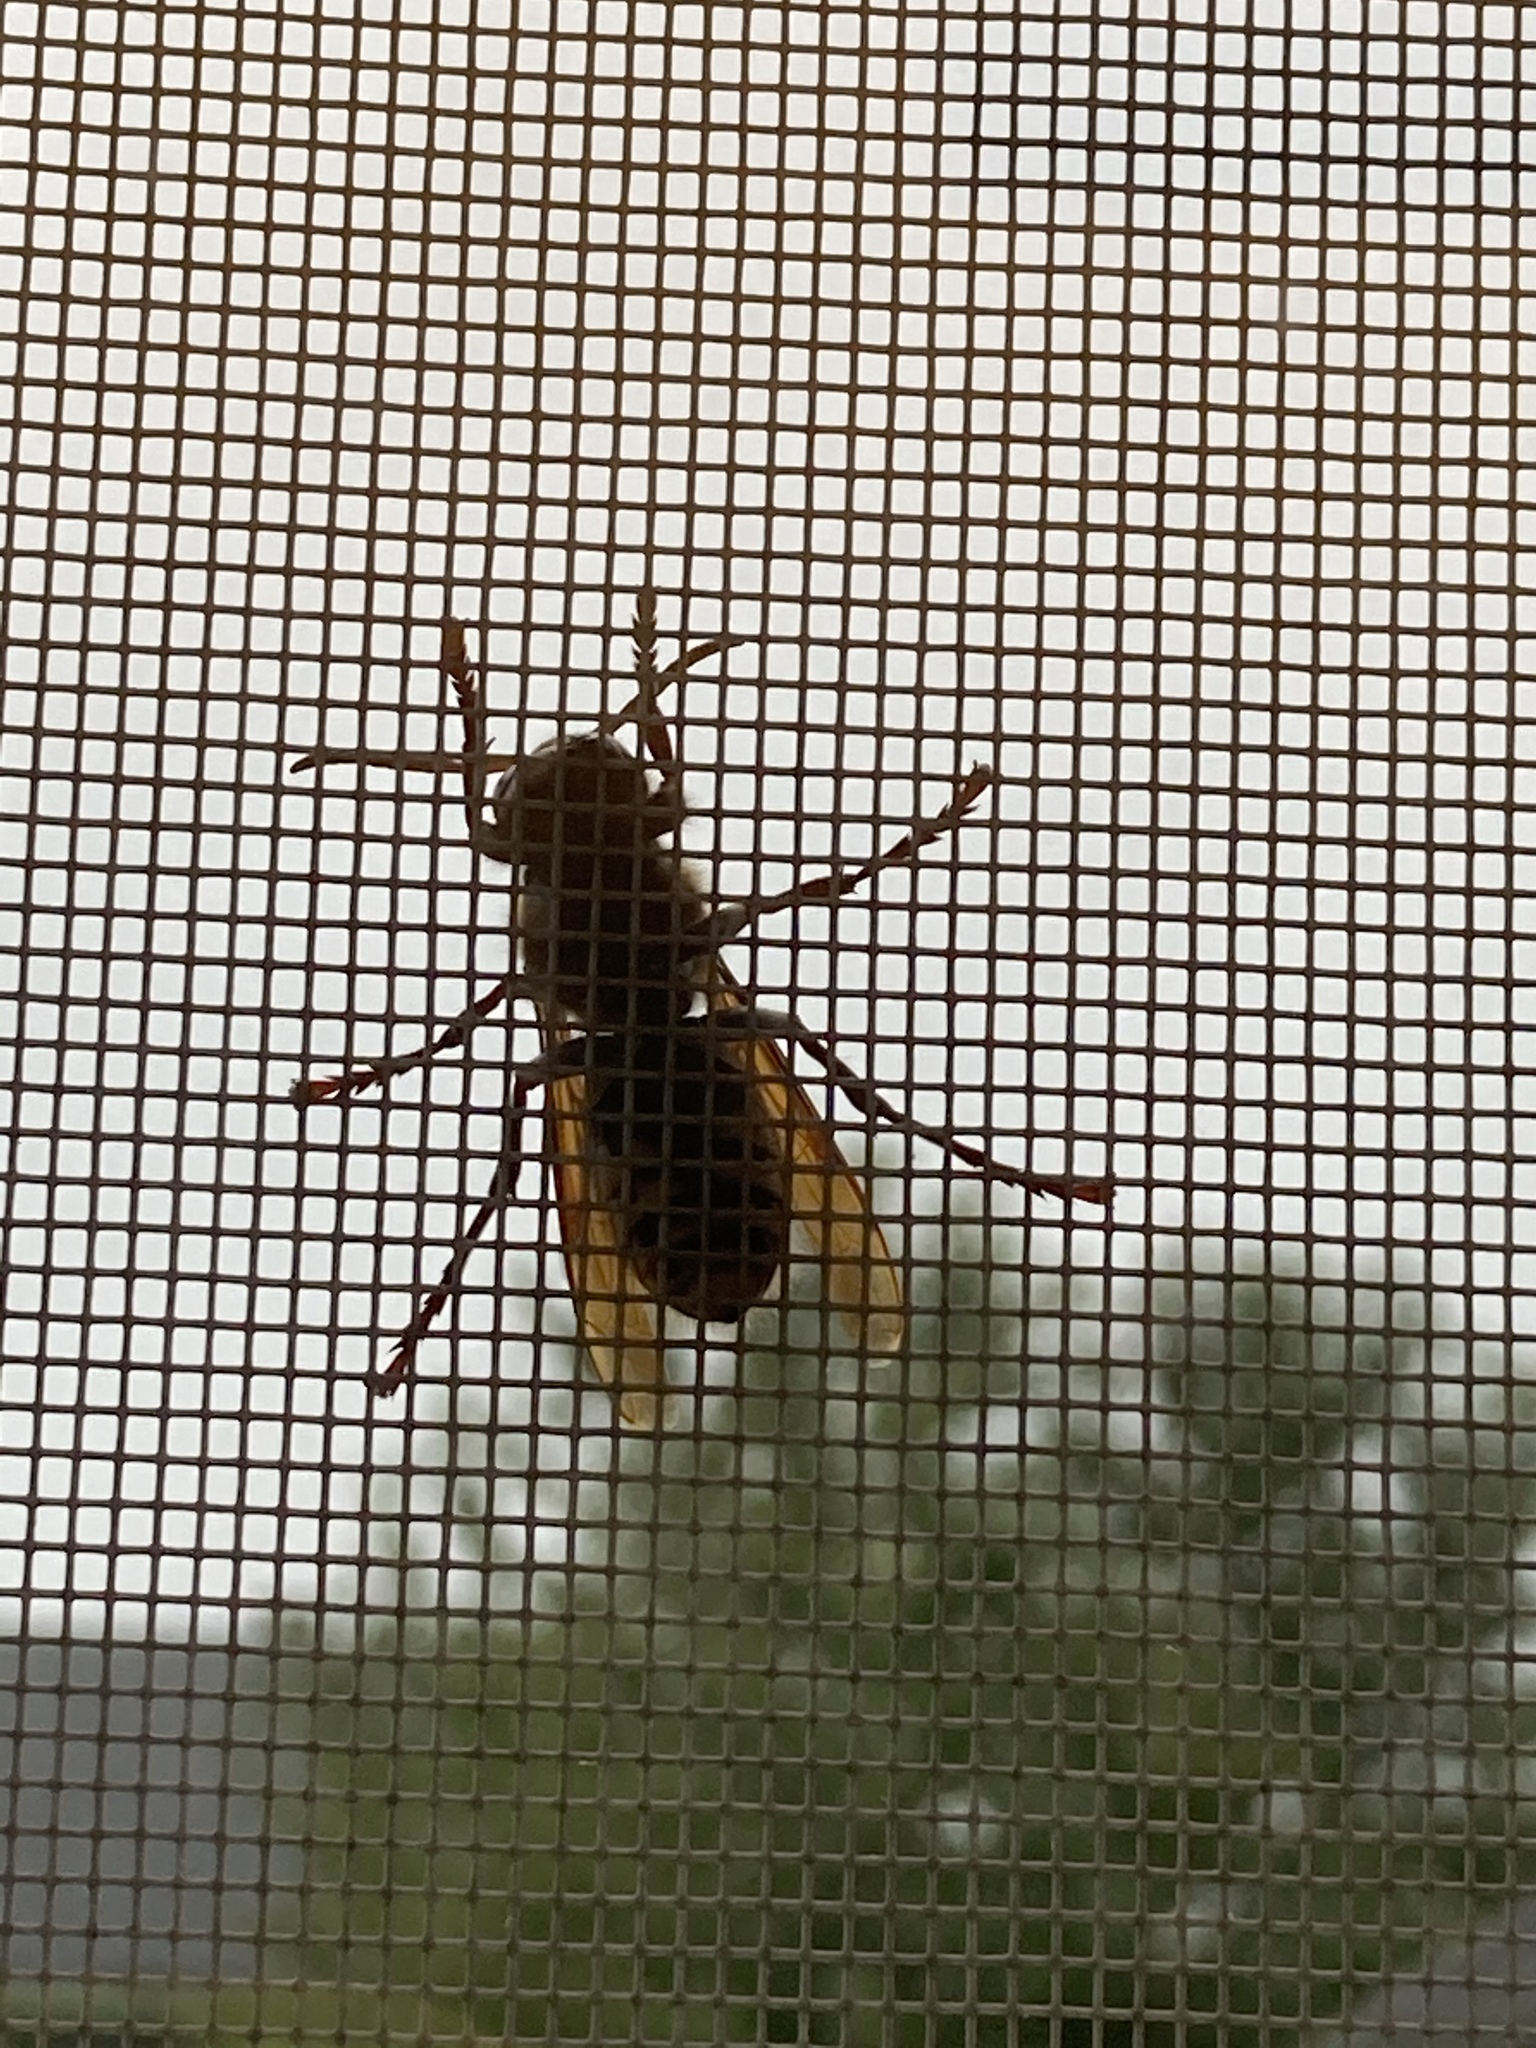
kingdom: Animalia
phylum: Arthropoda
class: Insecta
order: Hymenoptera
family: Vespidae
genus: Vespa
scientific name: Vespa crabro
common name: Hornet
